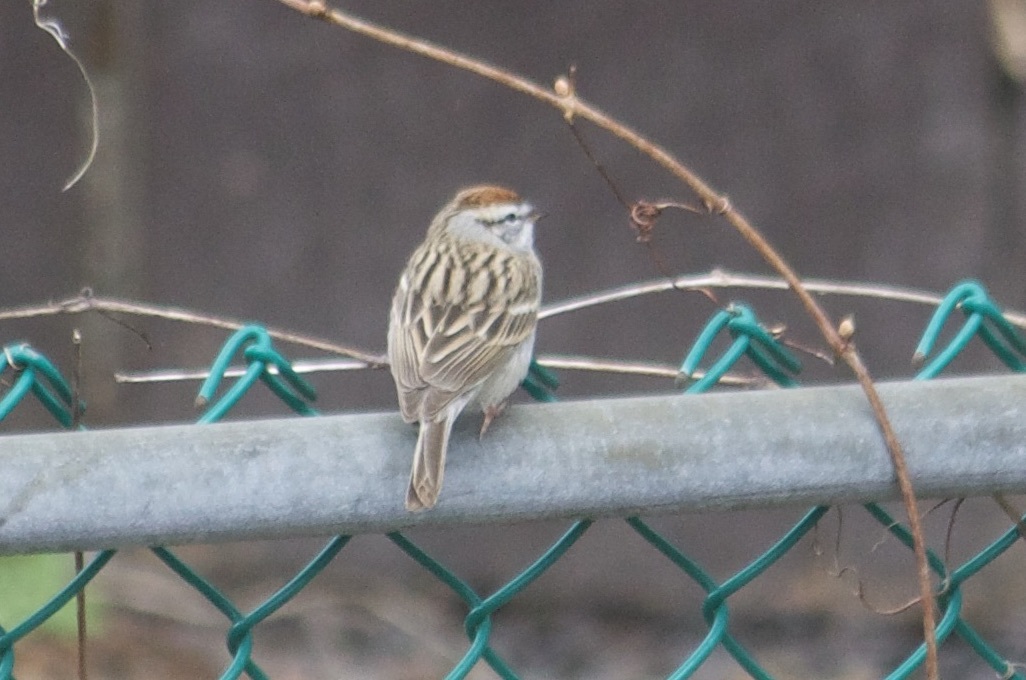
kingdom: Animalia
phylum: Chordata
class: Aves
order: Passeriformes
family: Passerellidae
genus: Spizella
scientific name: Spizella passerina
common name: Chipping sparrow
